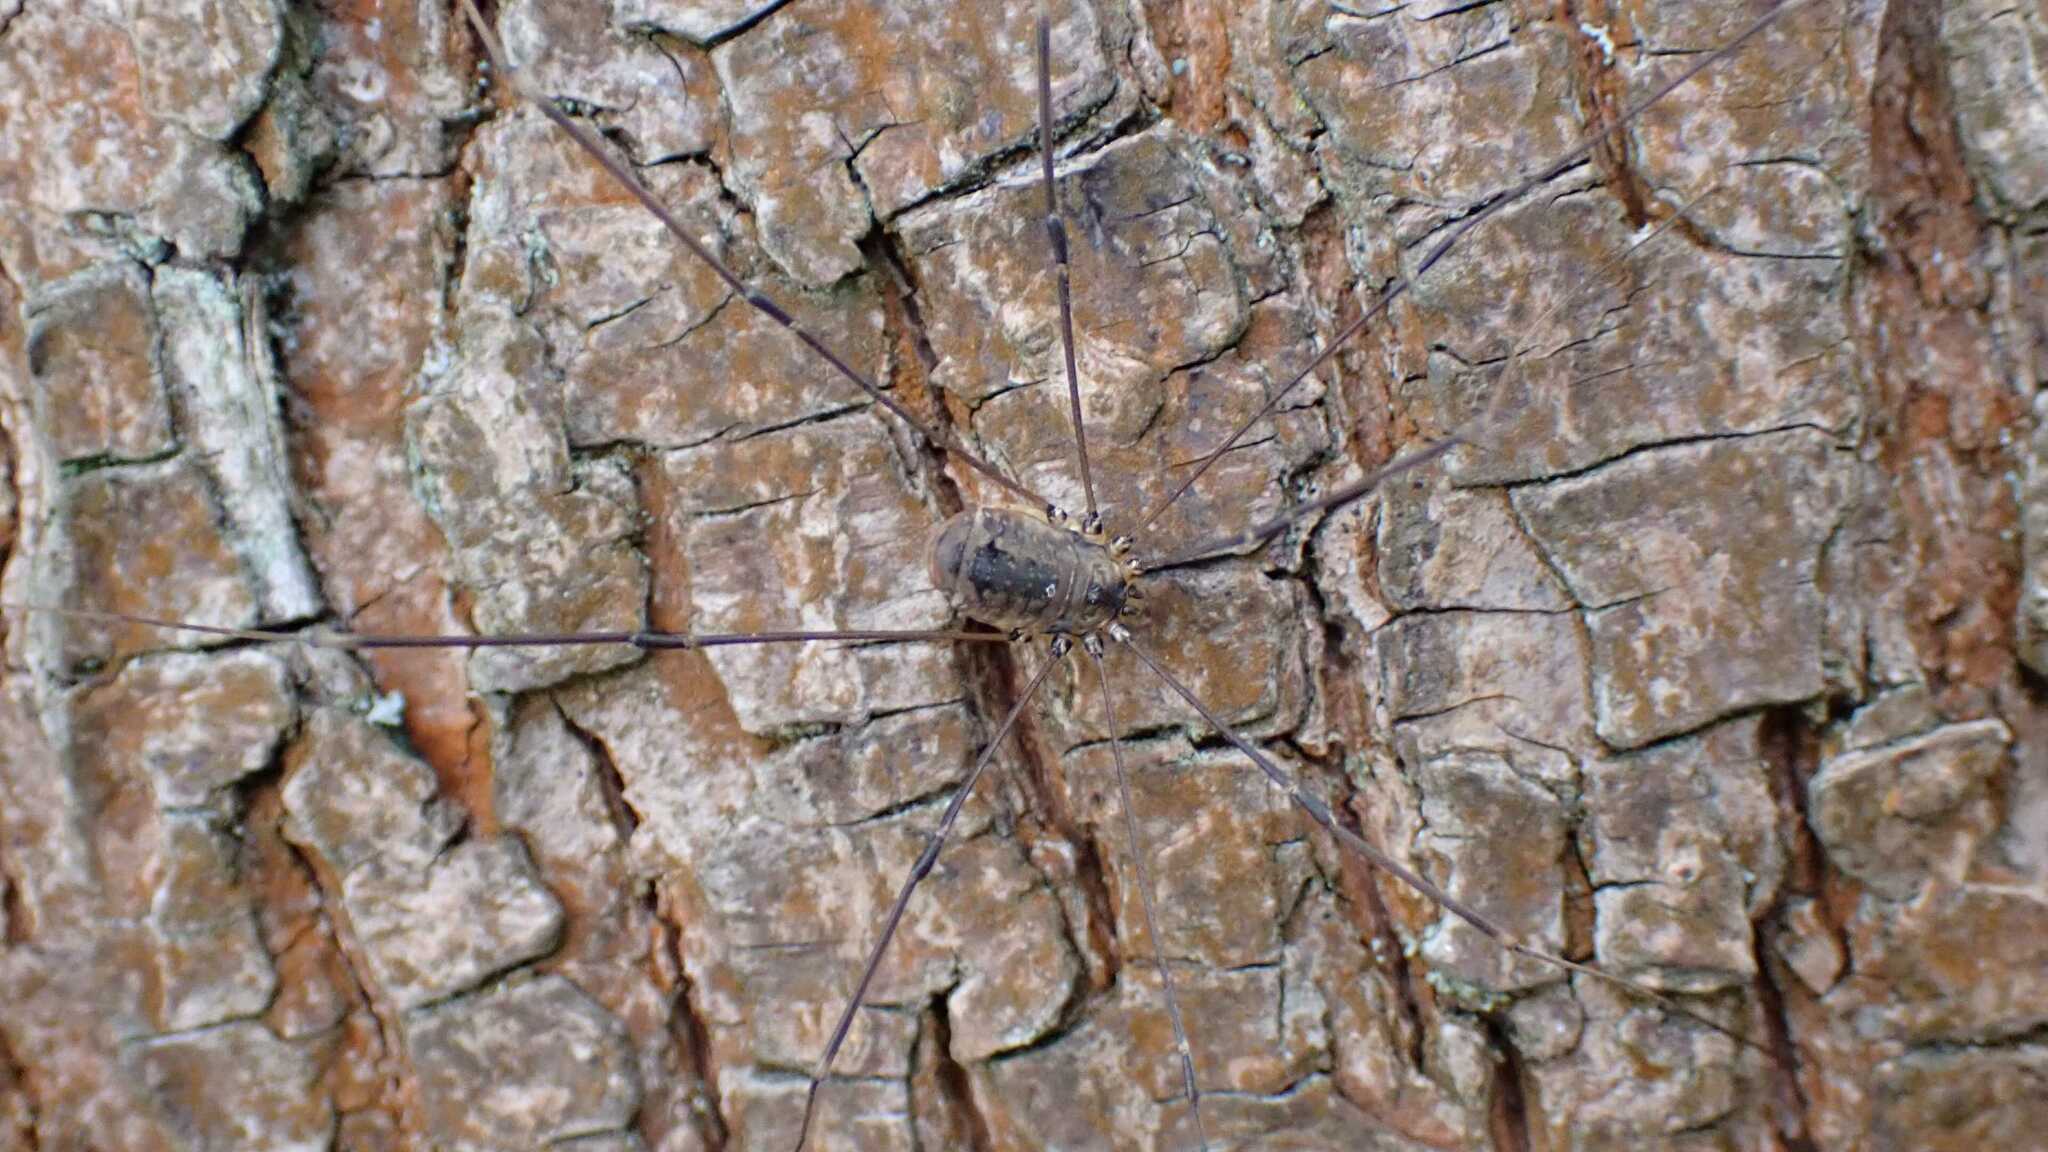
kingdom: Animalia
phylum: Arthropoda
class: Arachnida
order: Opiliones
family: Sclerosomatidae
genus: Leiobunum
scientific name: Leiobunum rotundum
